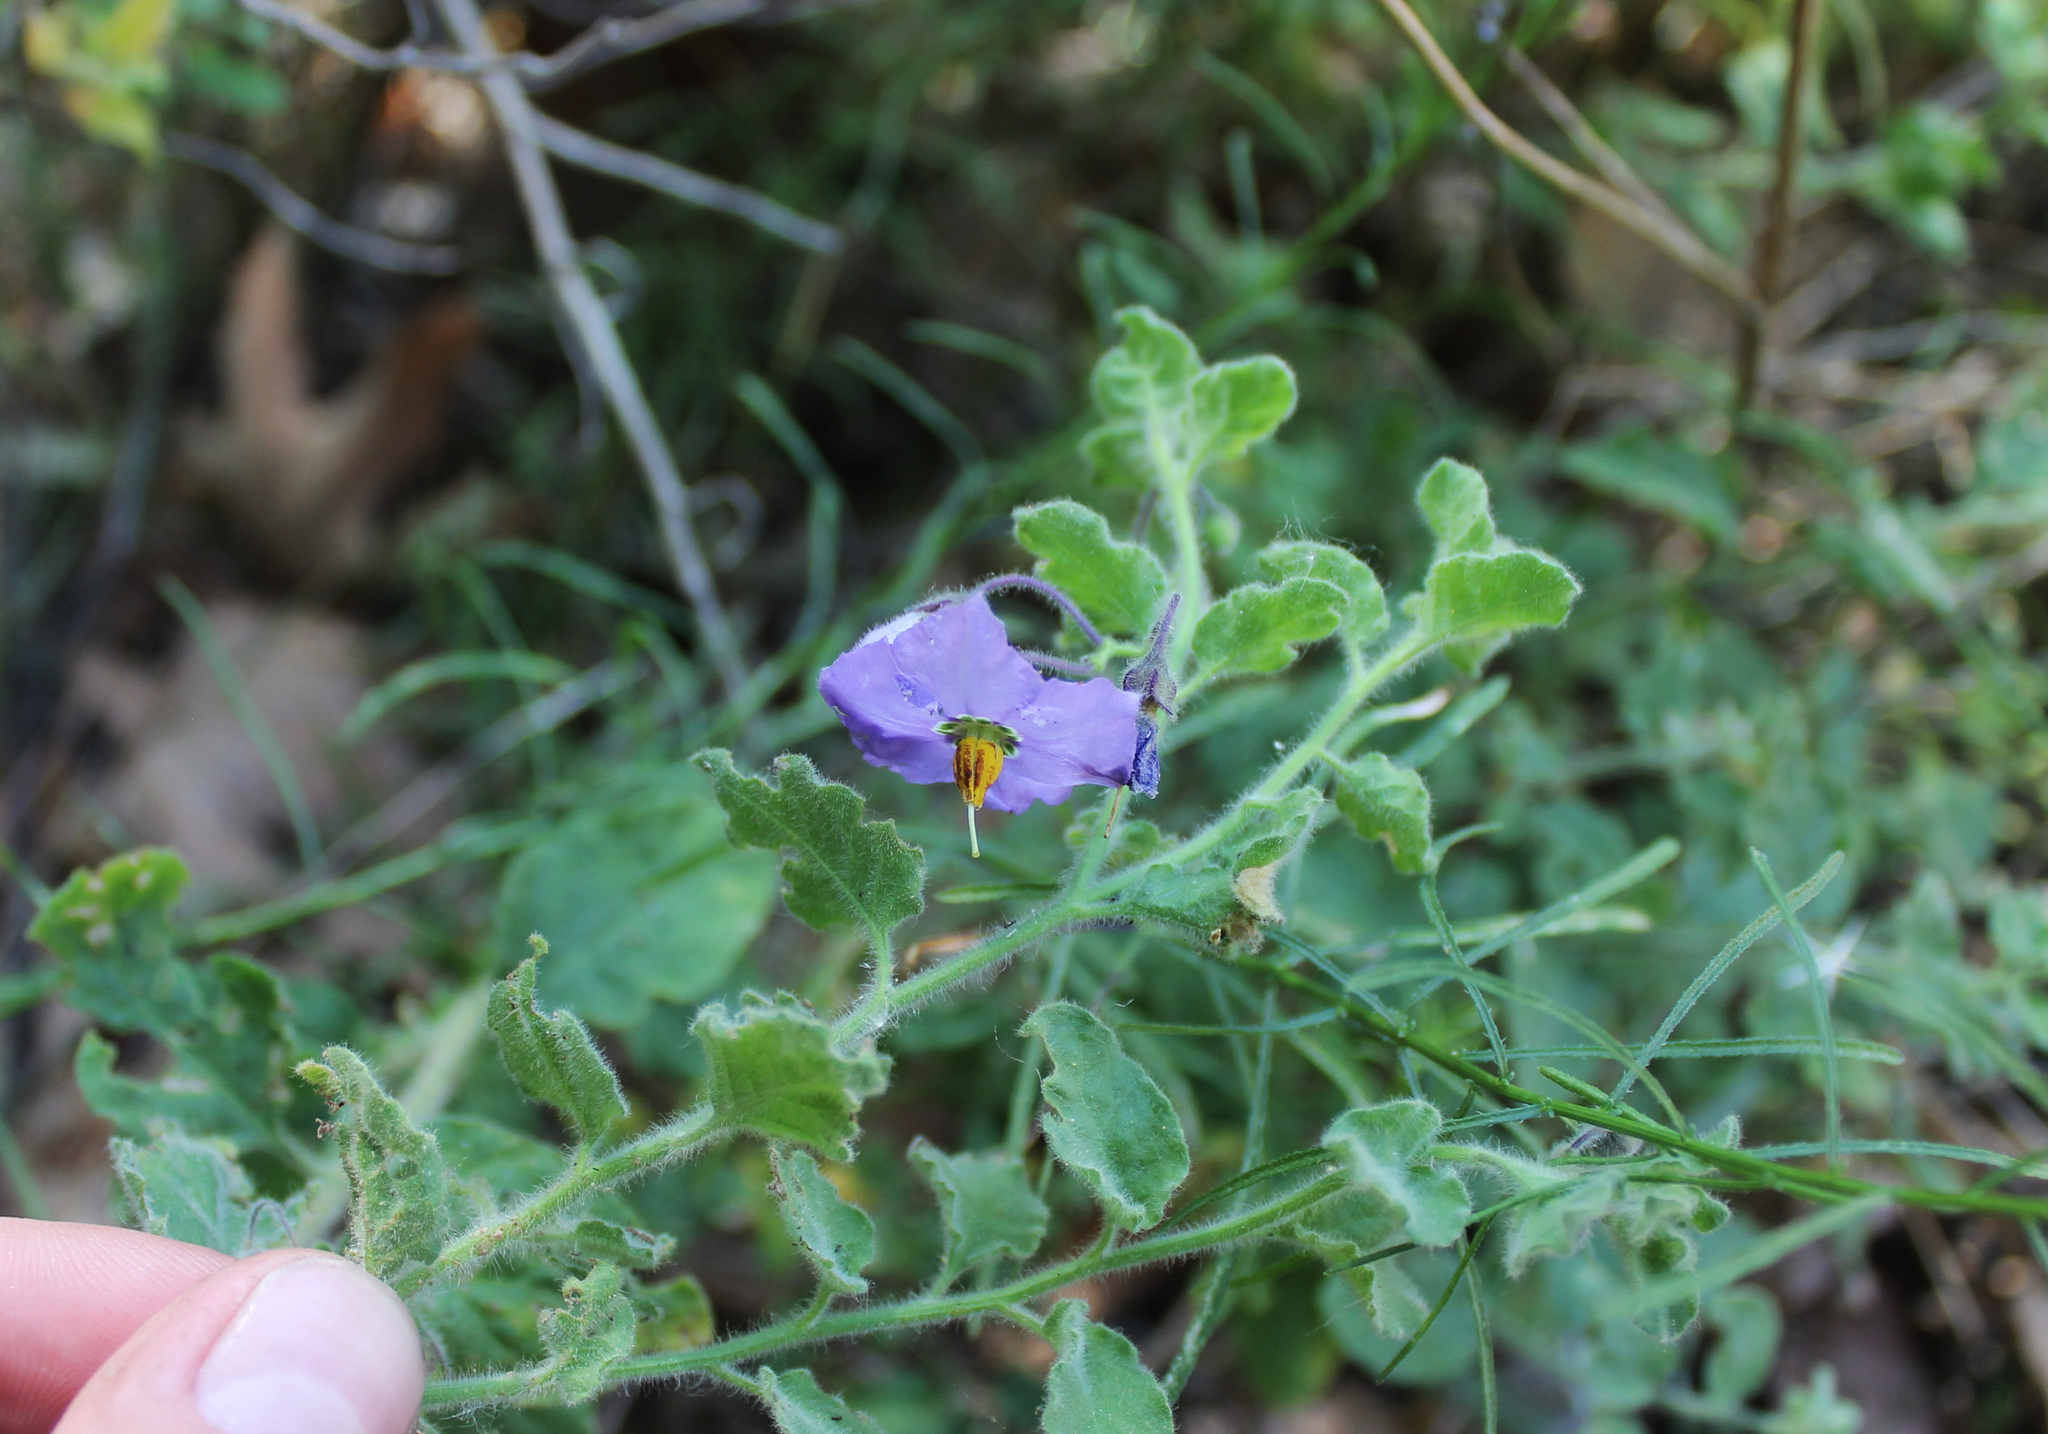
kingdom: Plantae
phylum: Tracheophyta
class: Magnoliopsida
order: Solanales
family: Solanaceae
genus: Solanum
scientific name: Solanum umbelliferum
